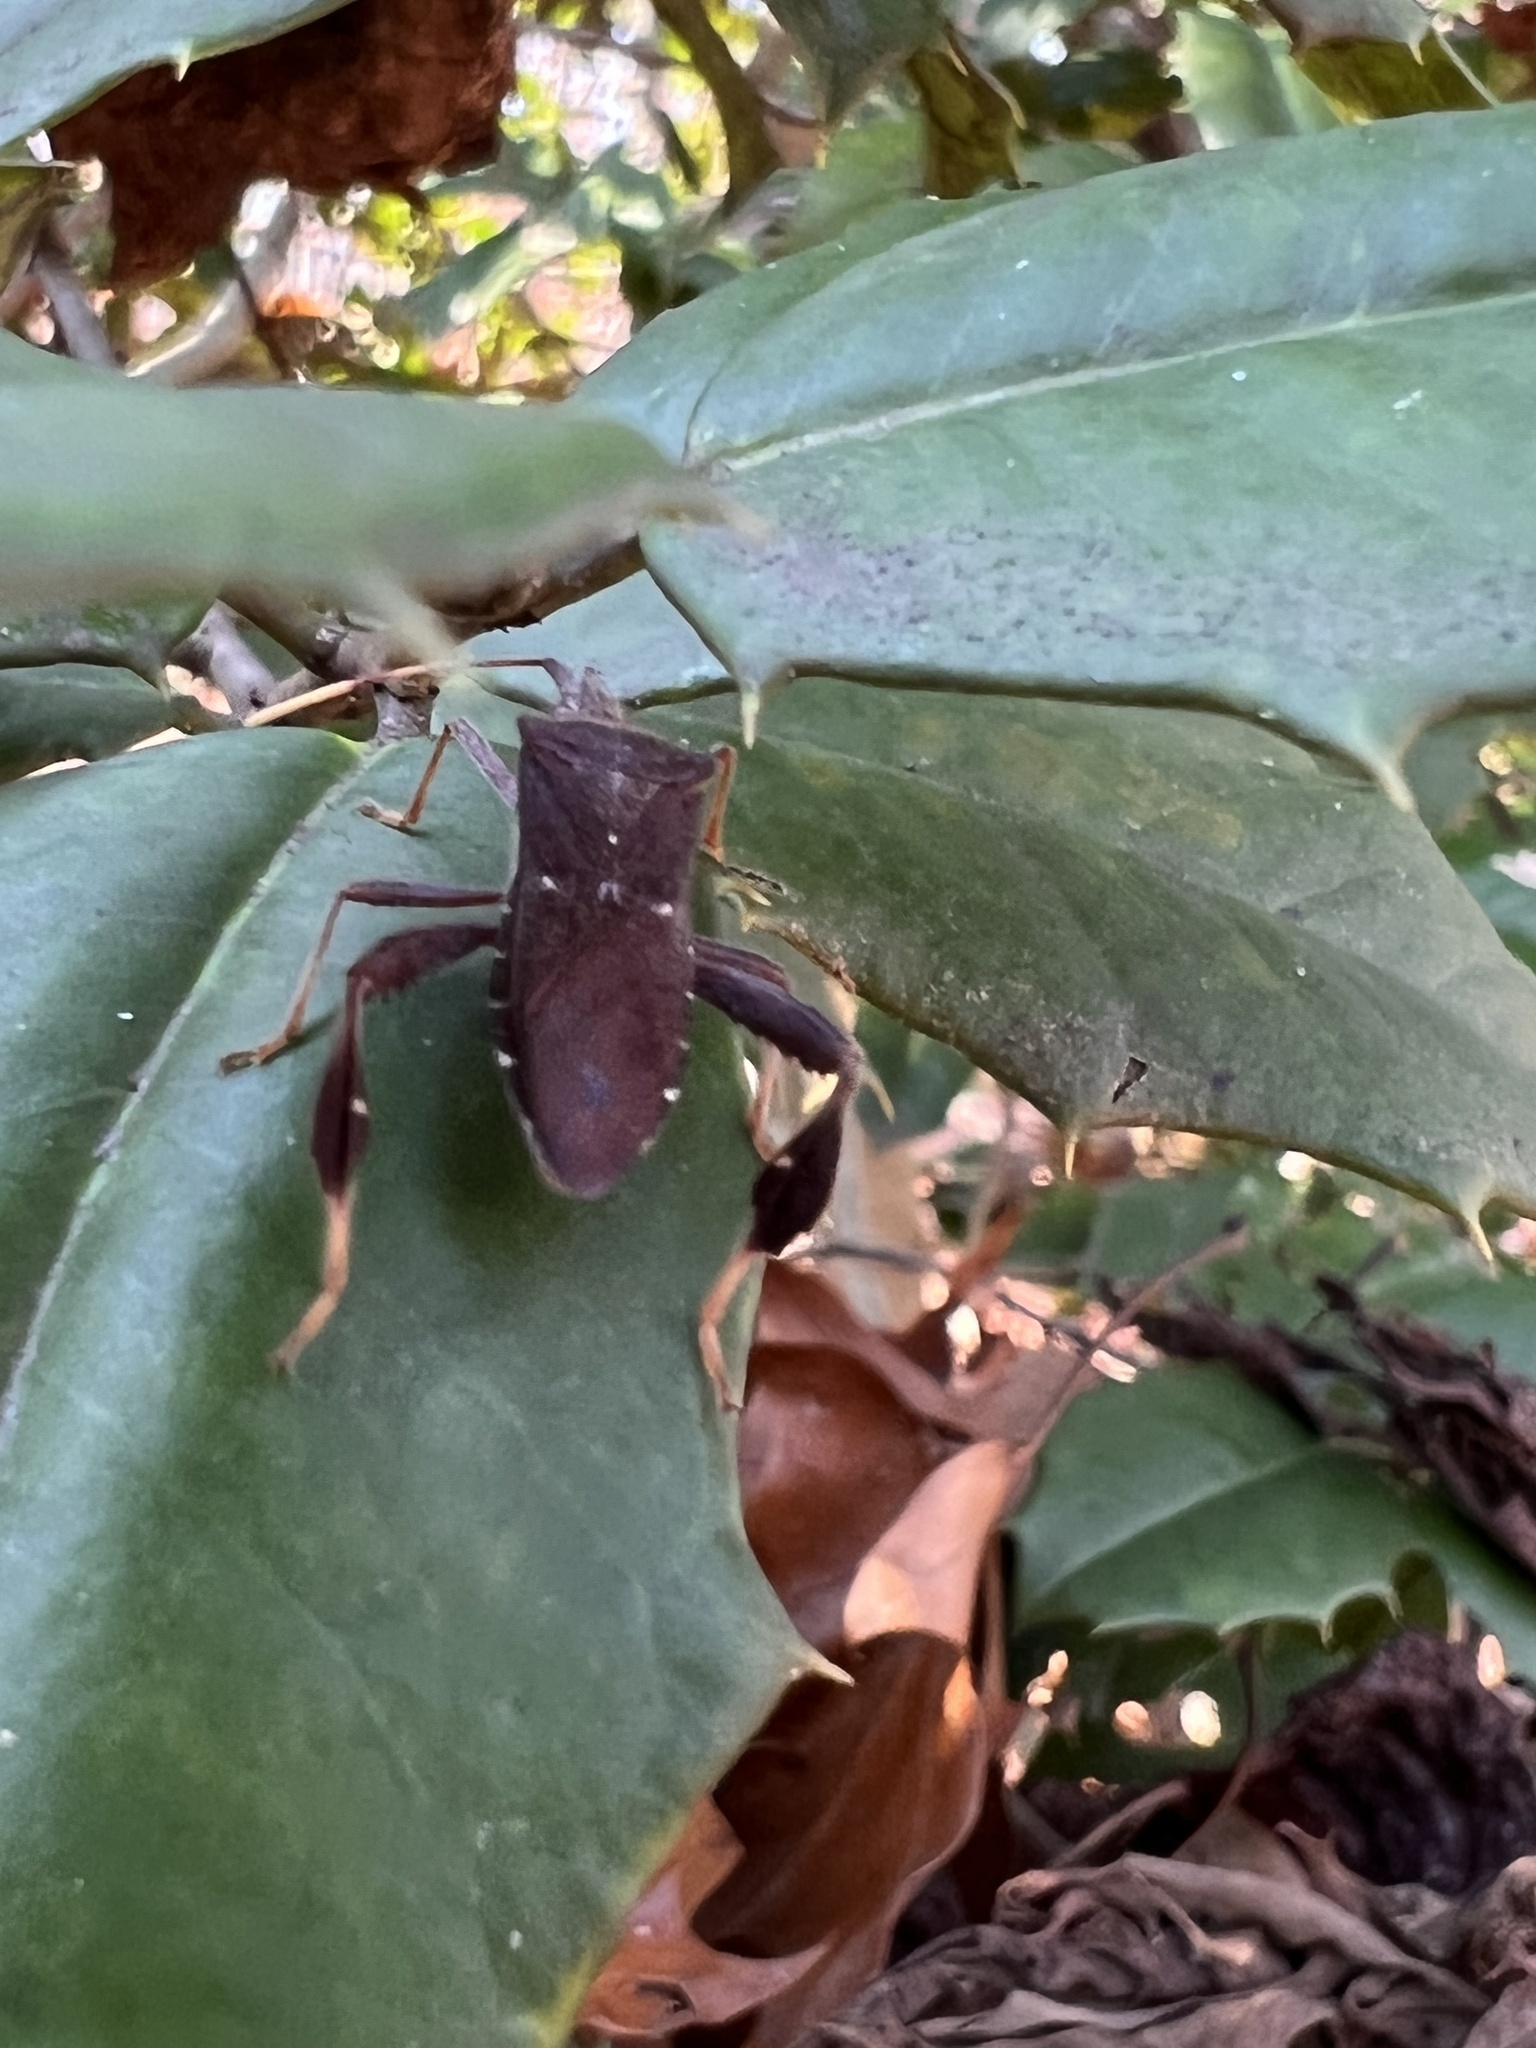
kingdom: Animalia
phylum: Arthropoda
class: Insecta
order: Hemiptera
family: Coreidae
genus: Leptoglossus
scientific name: Leptoglossus oppositus
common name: Northern leaf-footed bug
